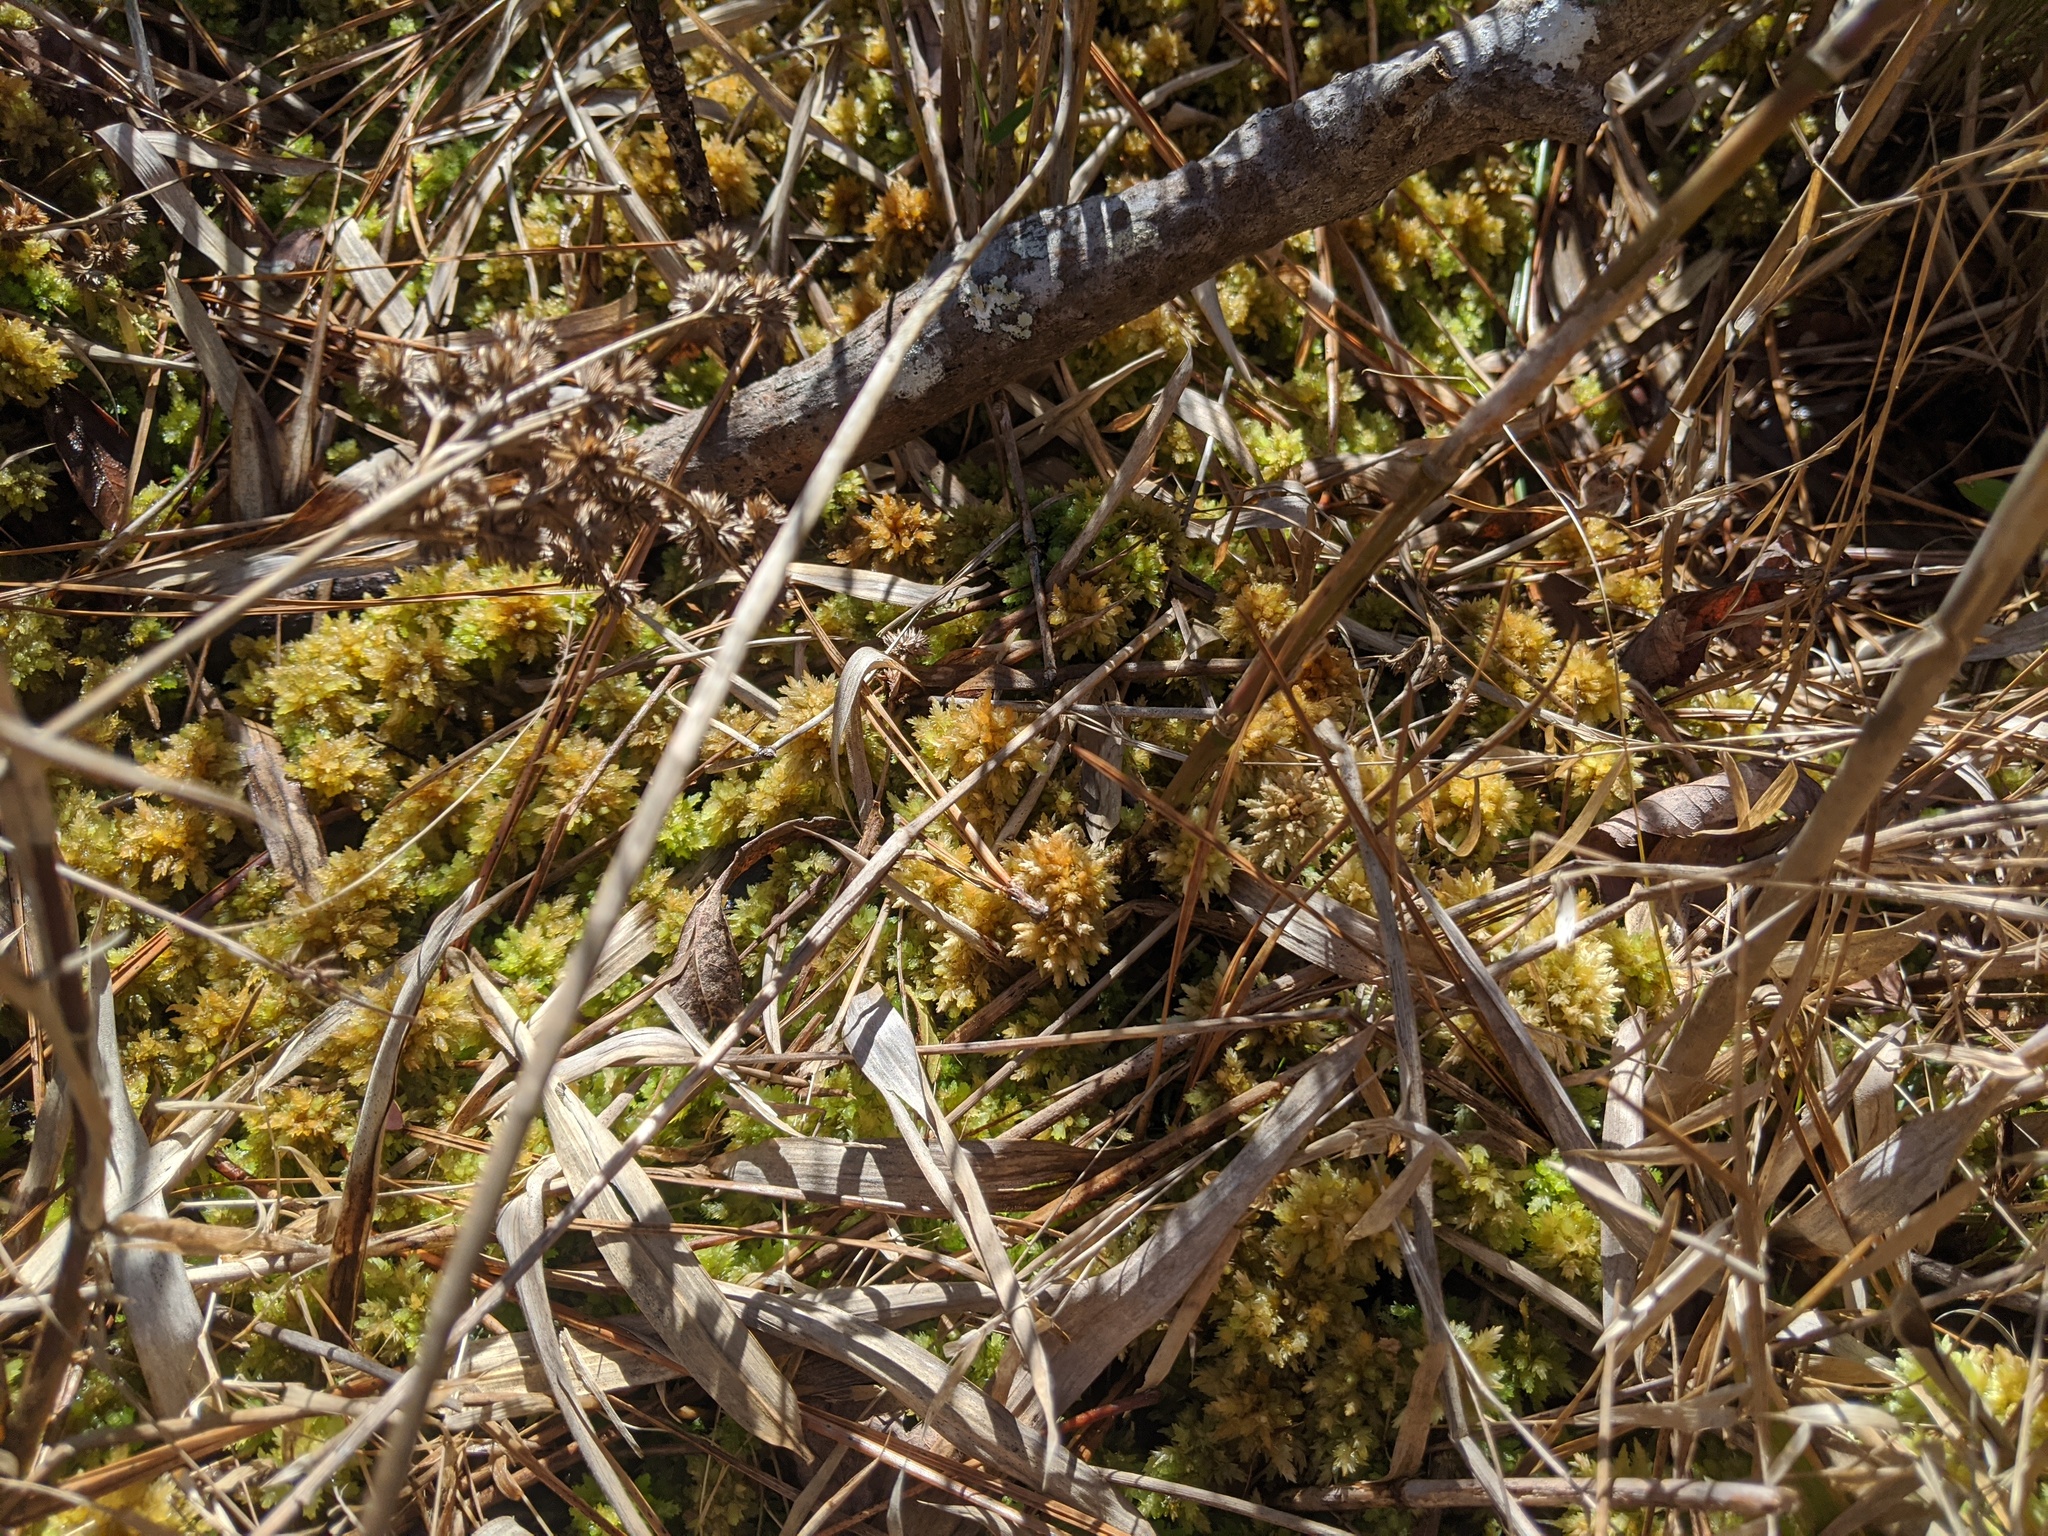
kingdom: Plantae
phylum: Bryophyta
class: Sphagnopsida
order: Sphagnales
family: Sphagnaceae
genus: Sphagnum
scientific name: Sphagnum
